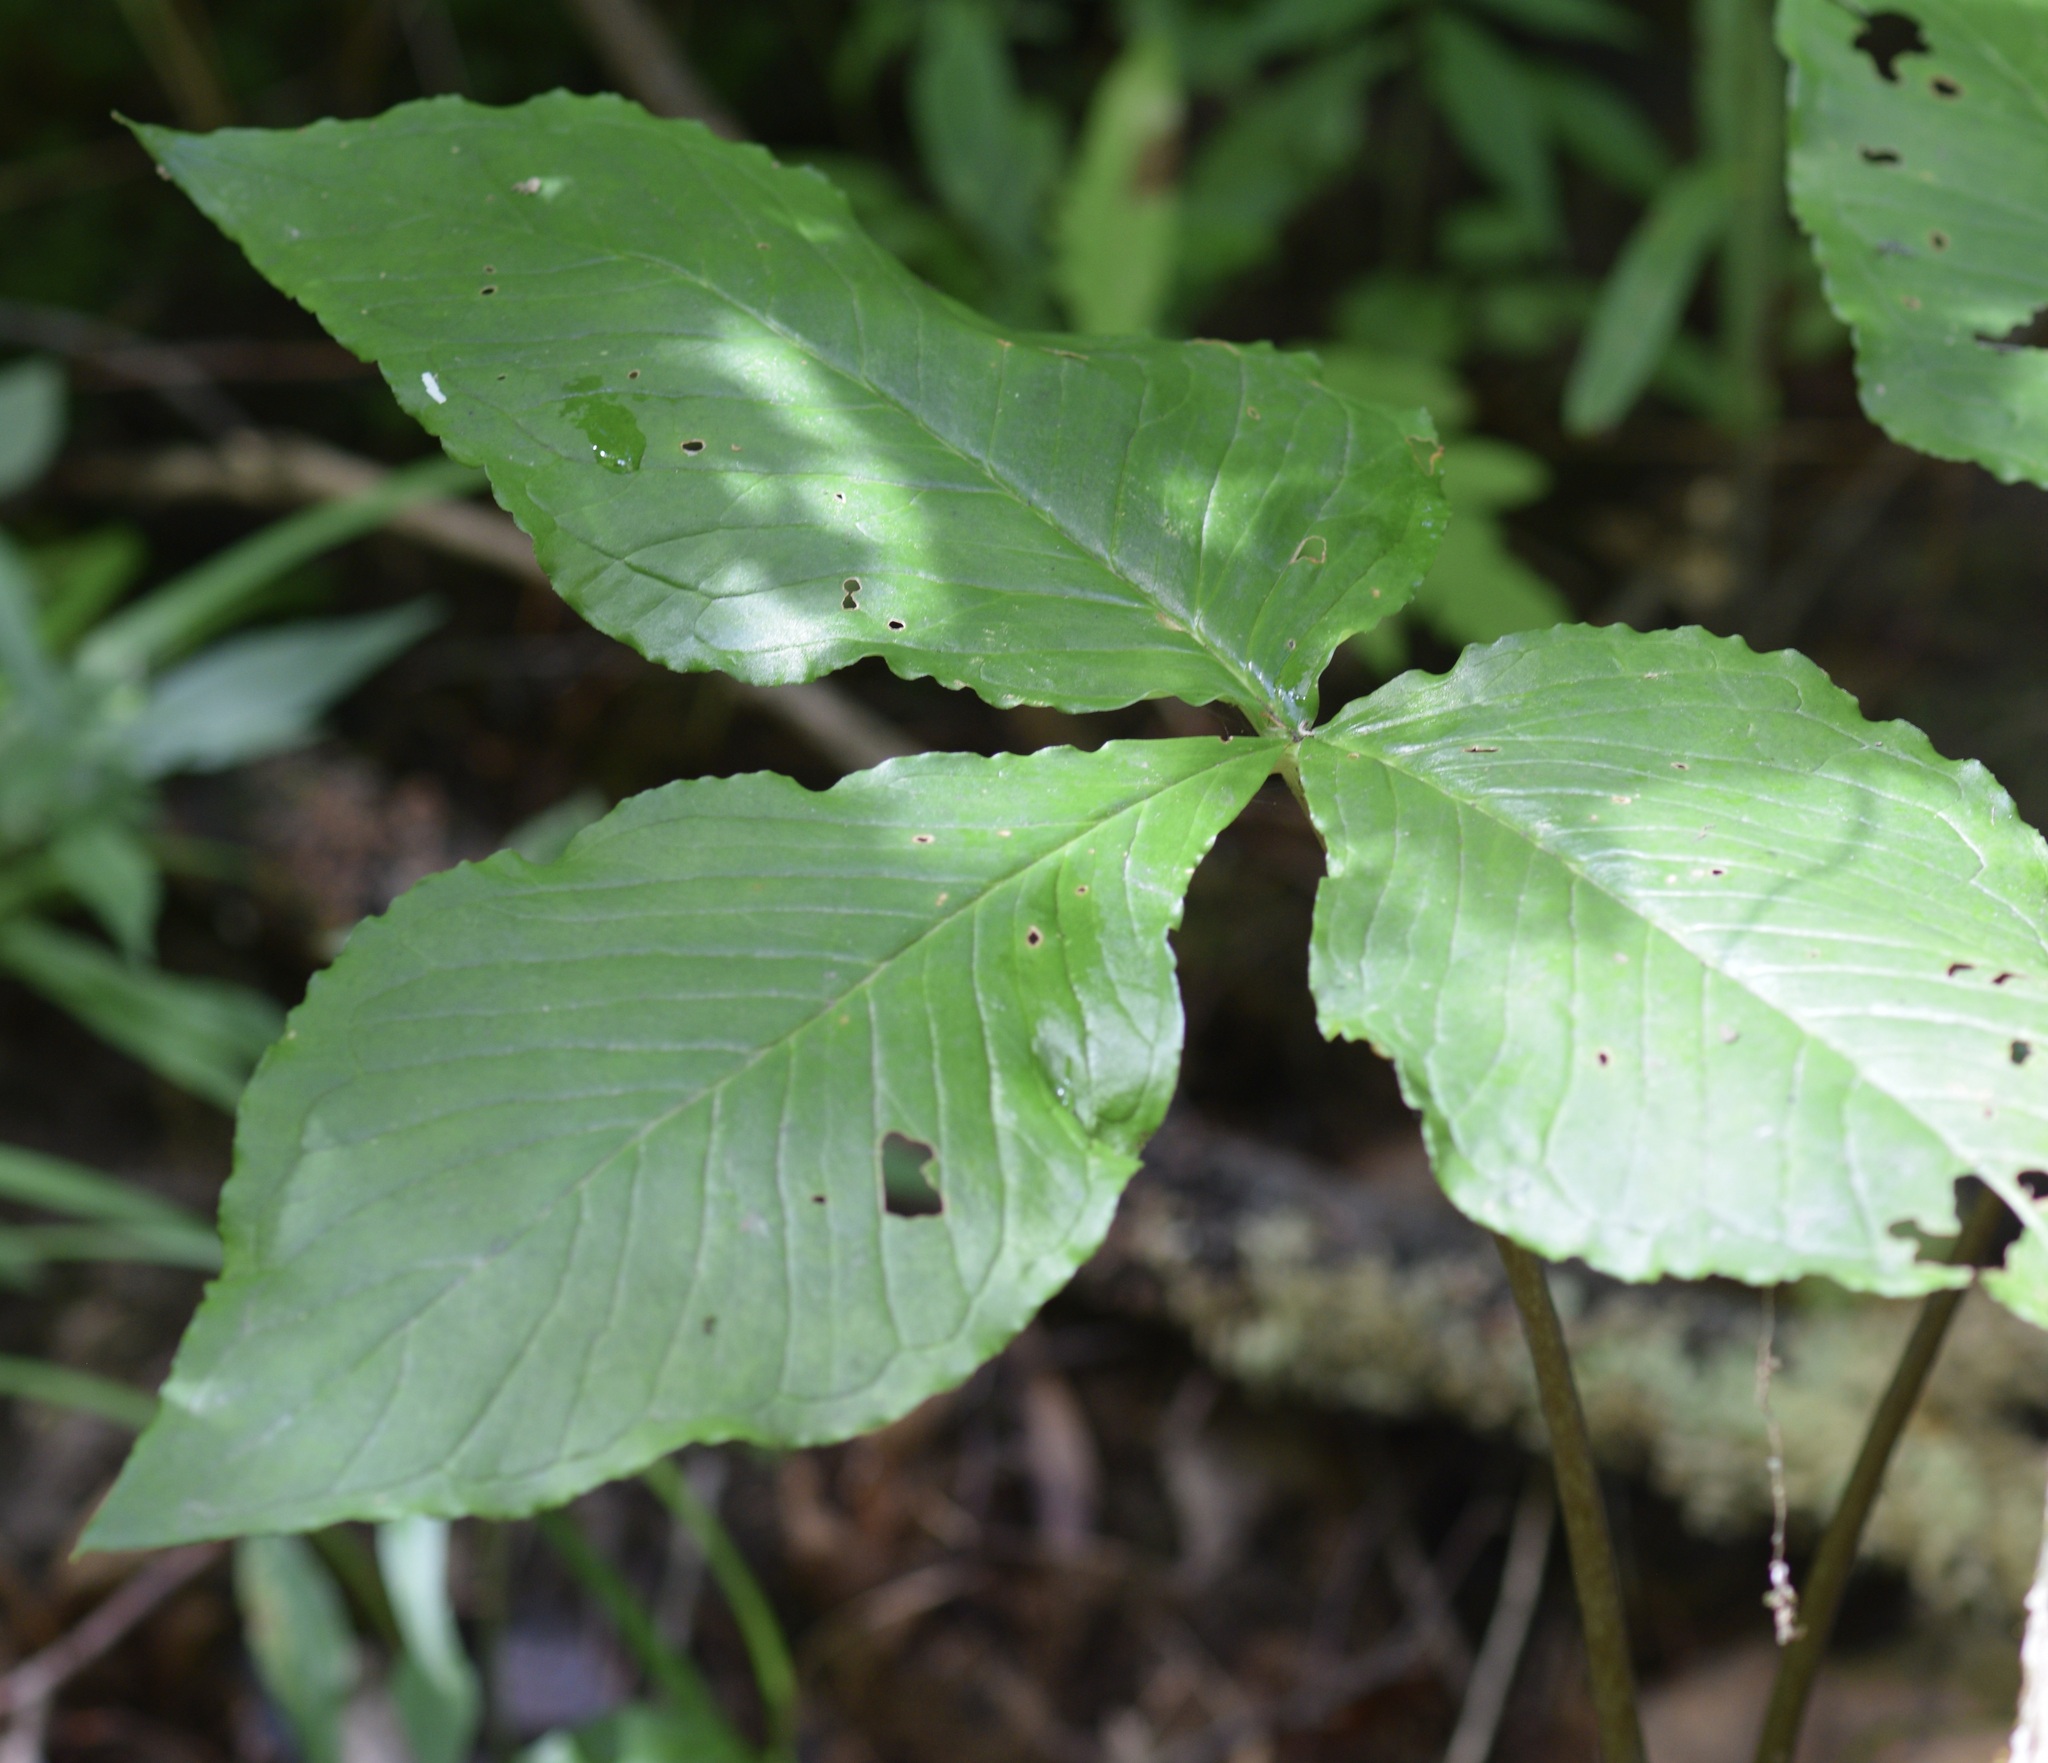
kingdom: Plantae
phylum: Tracheophyta
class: Liliopsida
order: Alismatales
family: Araceae
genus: Arisaema
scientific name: Arisaema triphyllum
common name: Jack-in-the-pulpit
